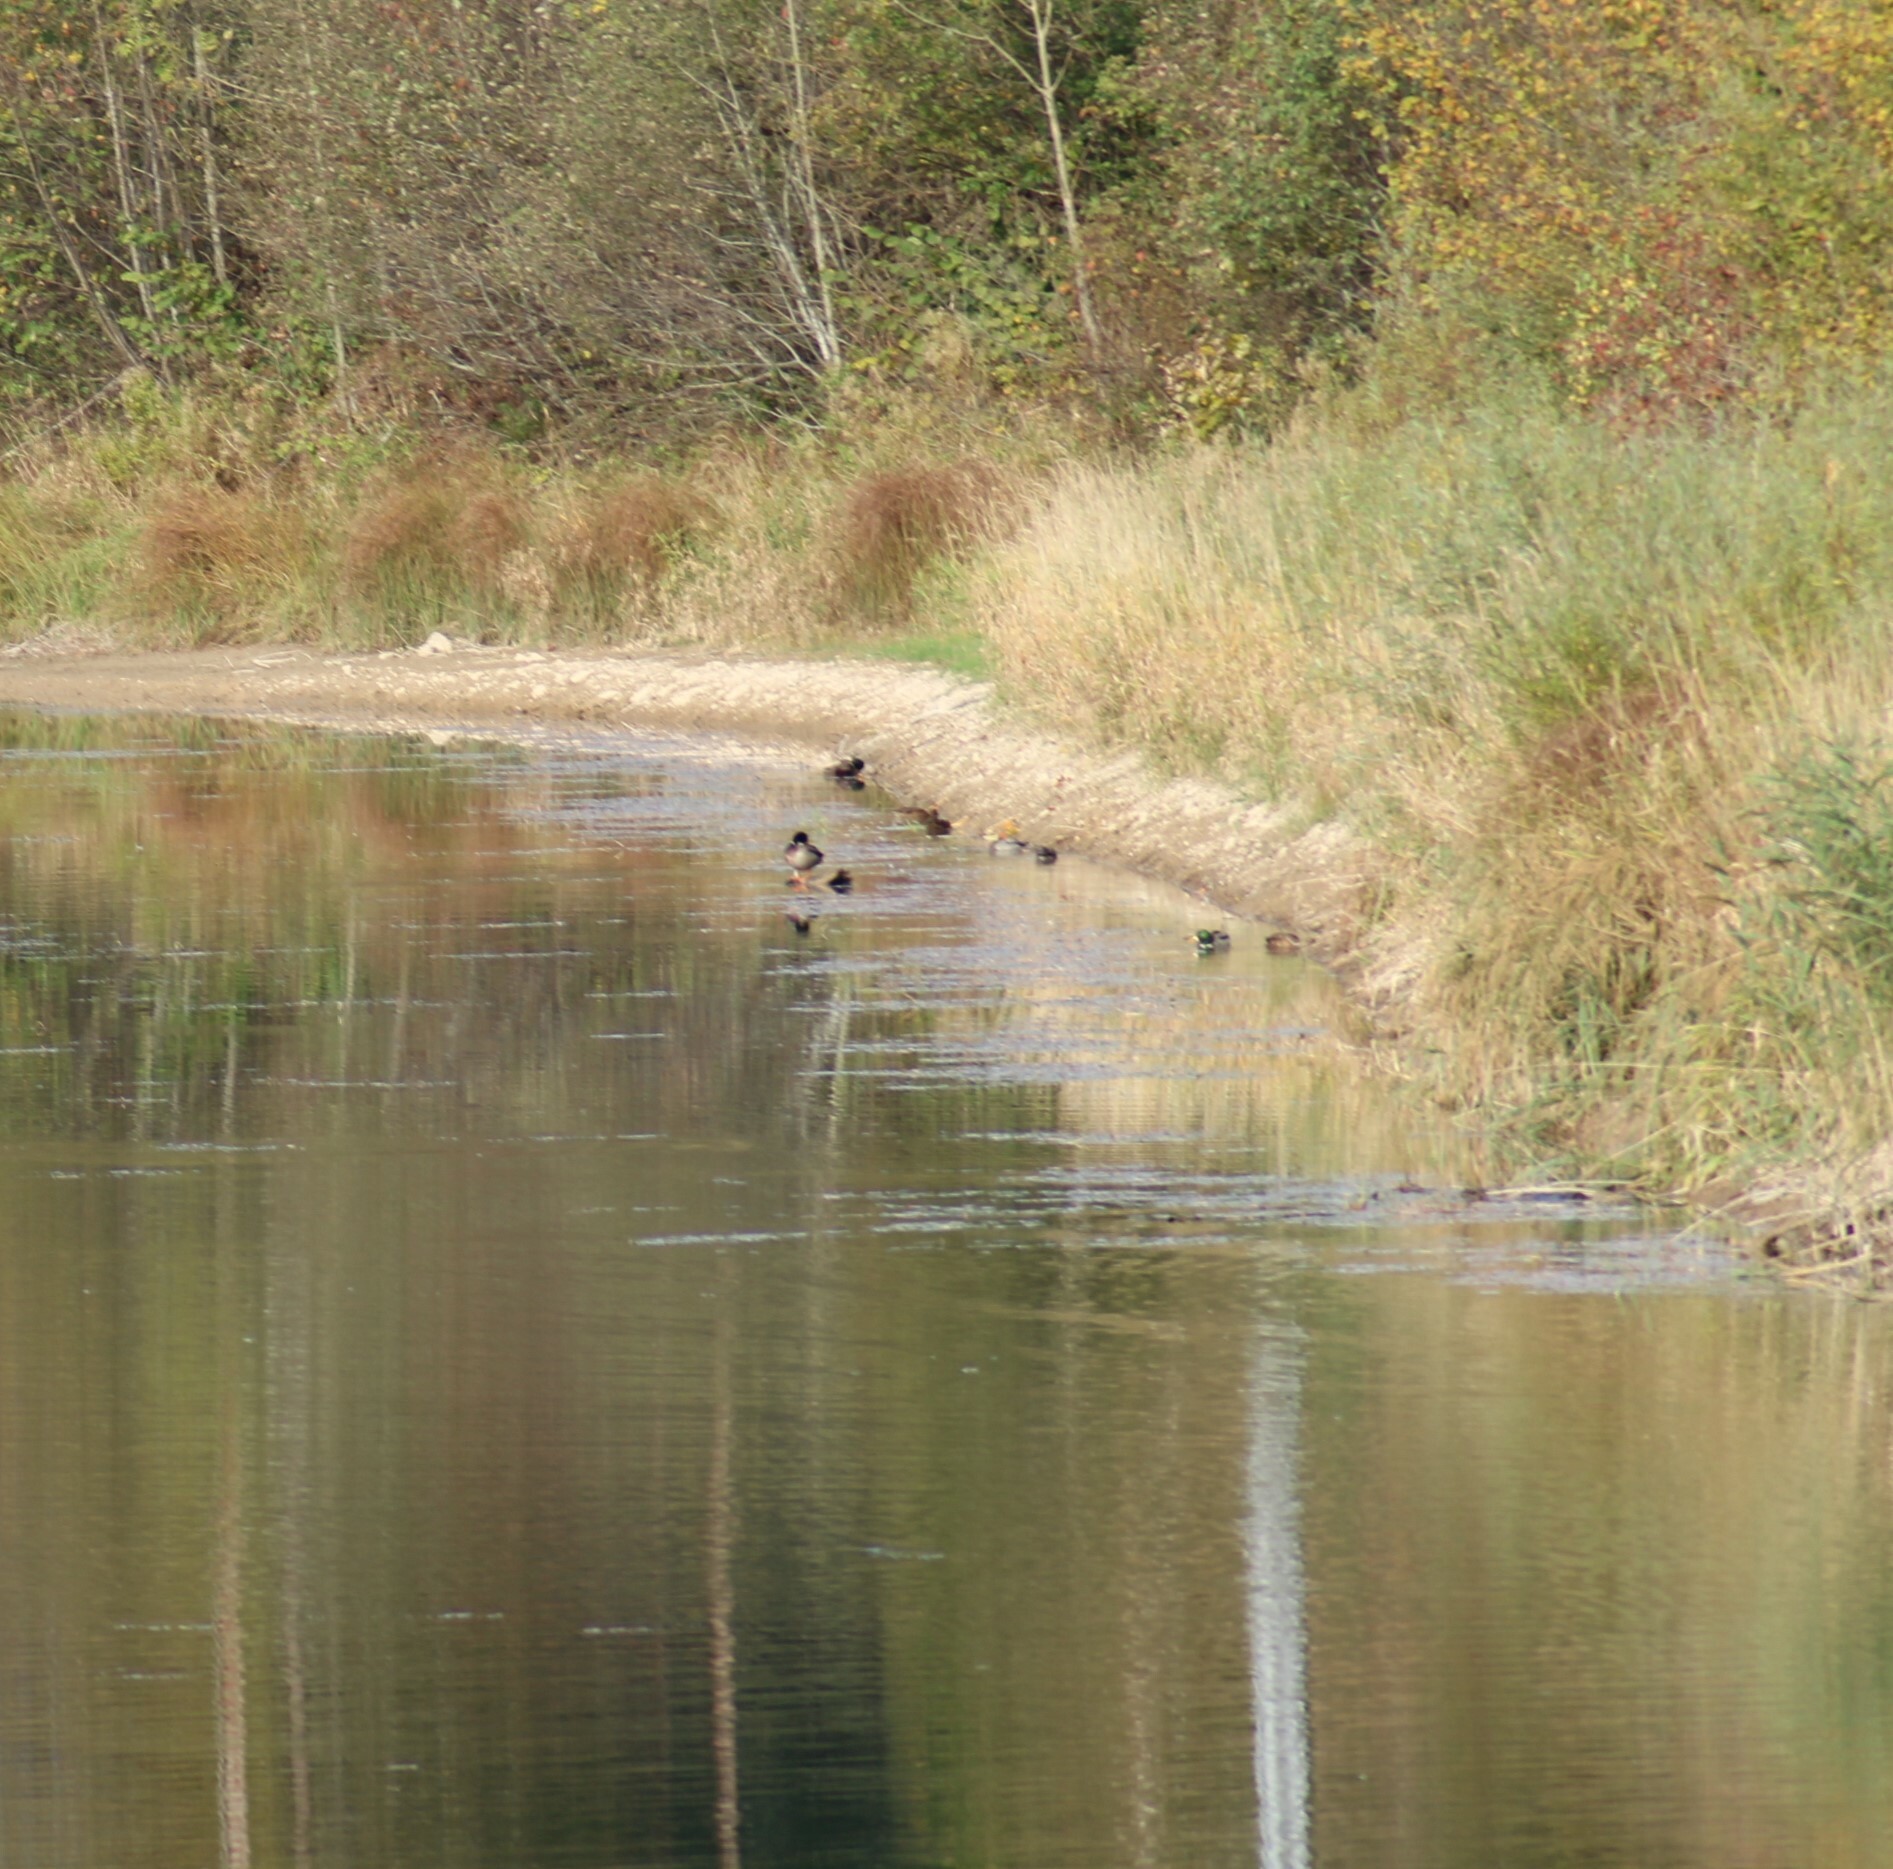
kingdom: Animalia
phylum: Chordata
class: Aves
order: Anseriformes
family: Anatidae
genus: Anas
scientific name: Anas platyrhynchos
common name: Mallard
